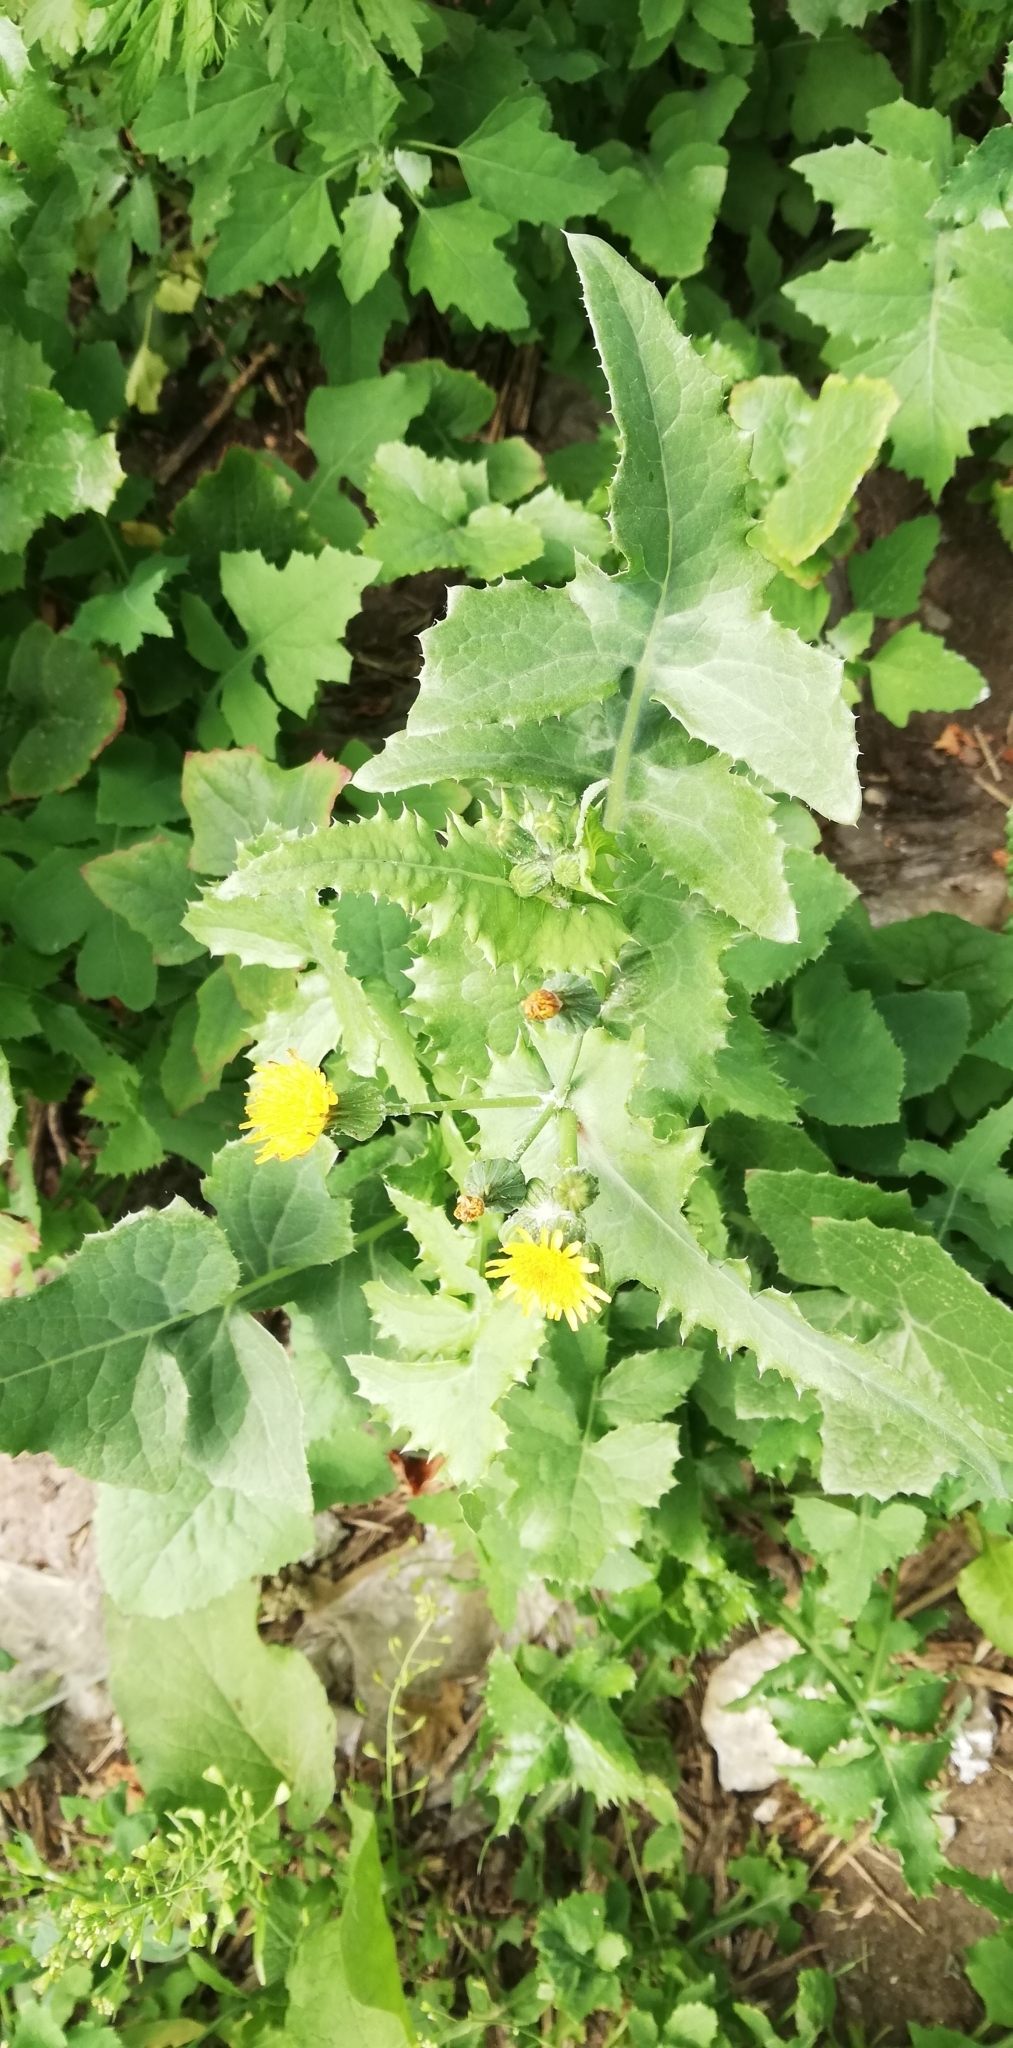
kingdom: Plantae
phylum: Tracheophyta
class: Magnoliopsida
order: Asterales
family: Asteraceae
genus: Sonchus
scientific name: Sonchus oleraceus
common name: Common sowthistle
